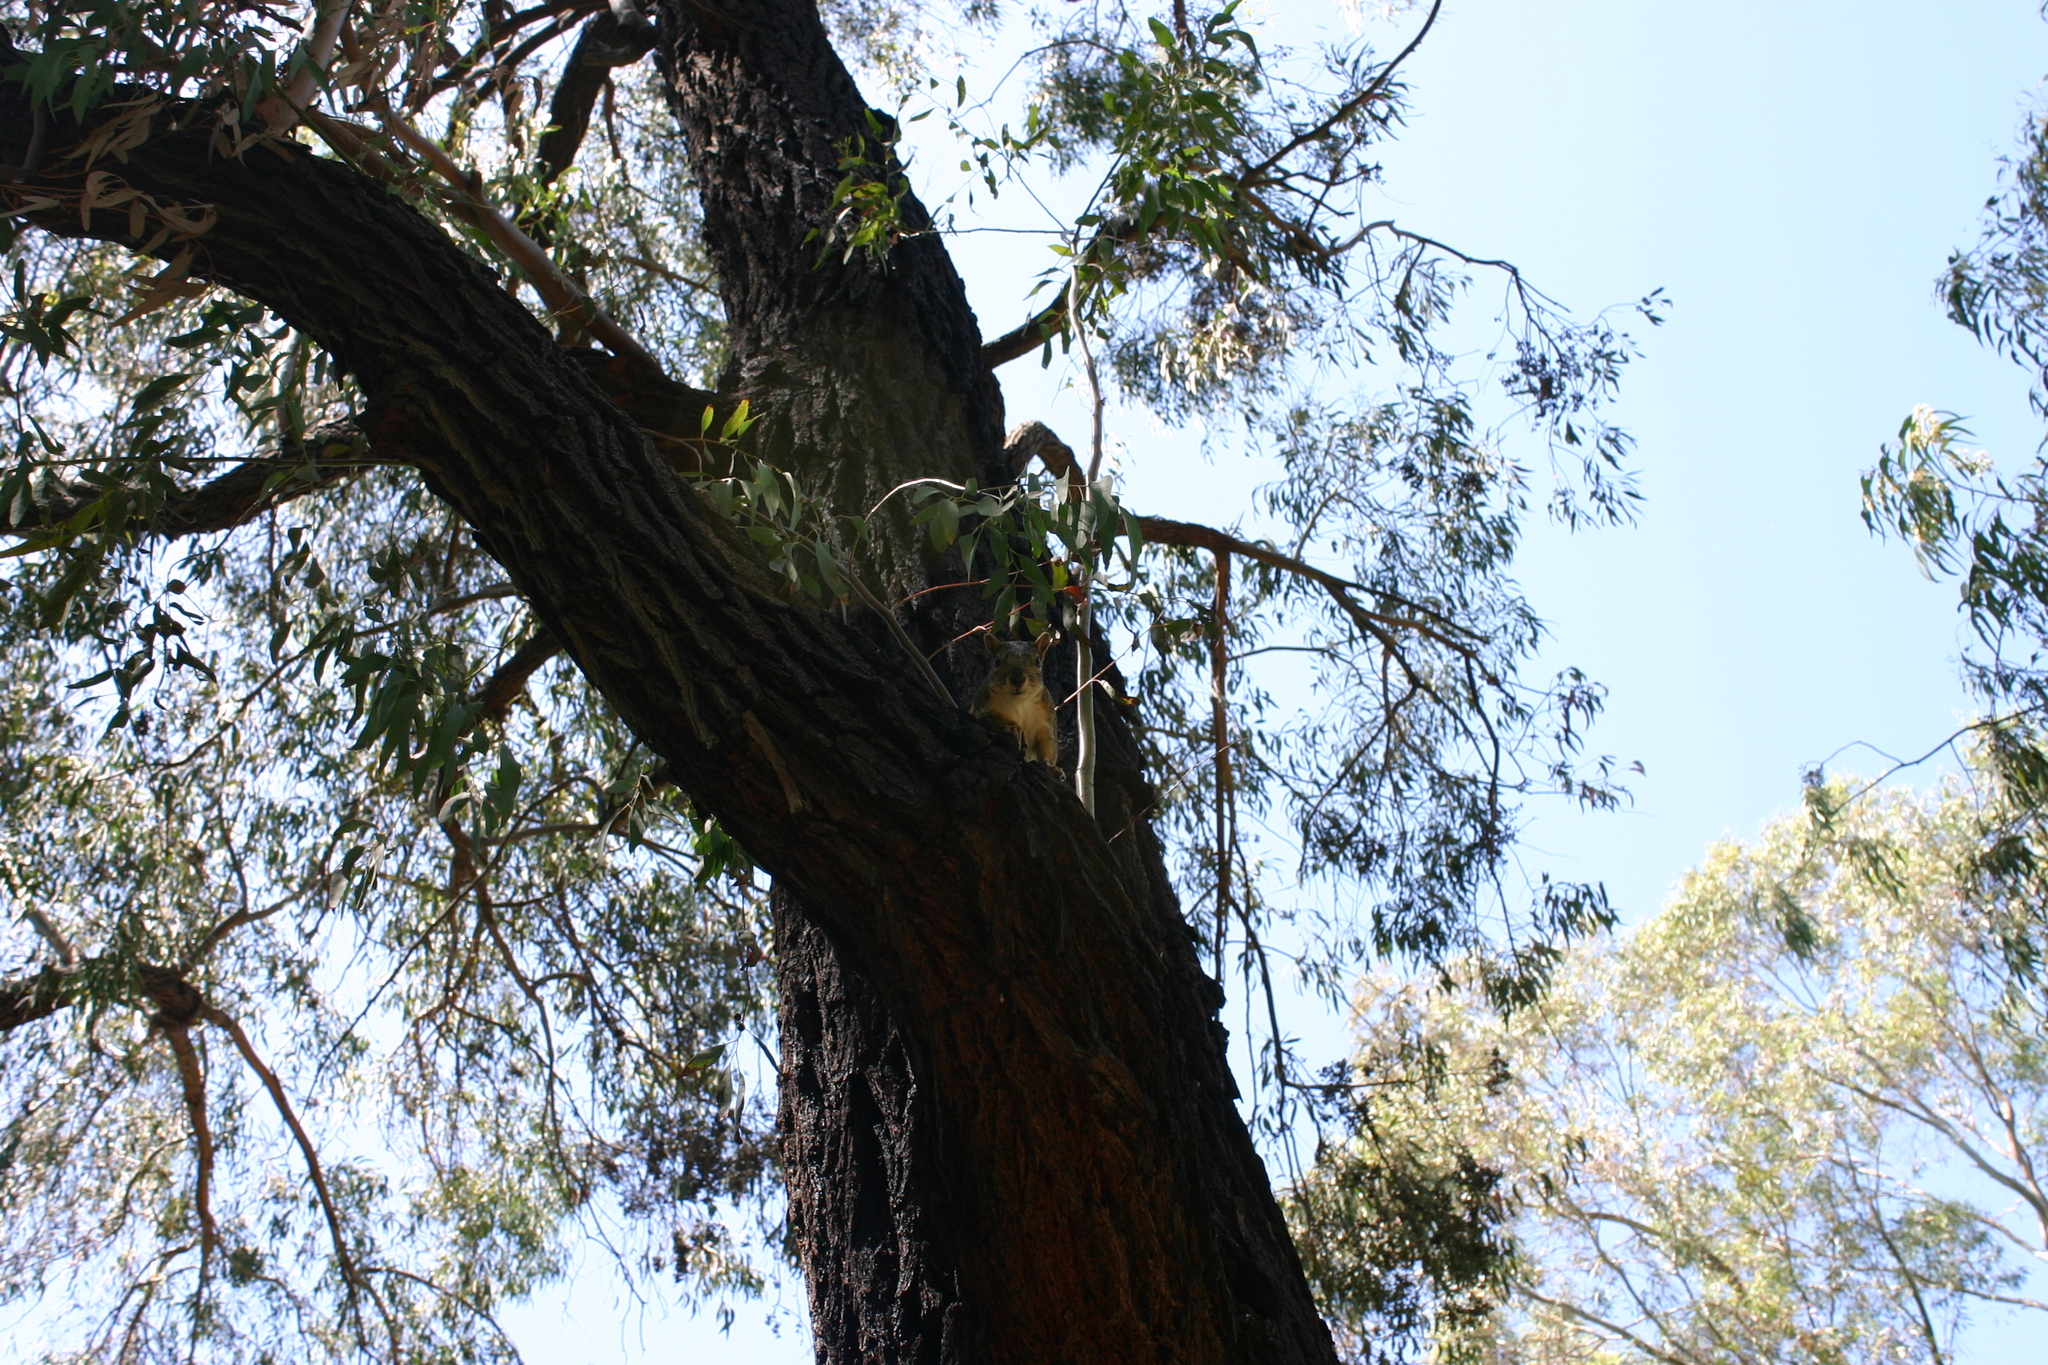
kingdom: Animalia
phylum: Chordata
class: Mammalia
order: Rodentia
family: Sciuridae
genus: Sciurus
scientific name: Sciurus niger
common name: Fox squirrel
